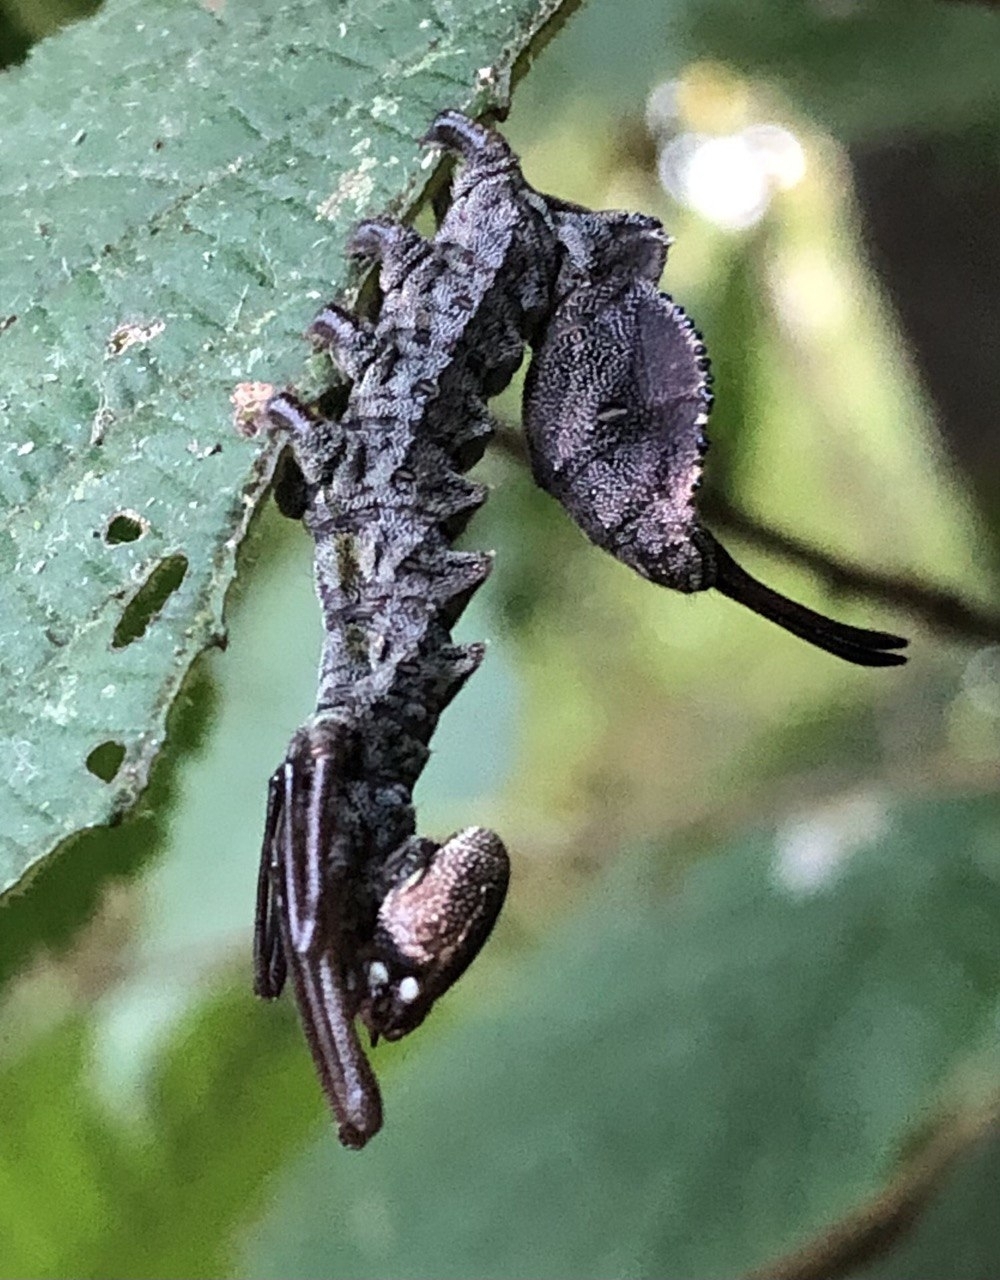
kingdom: Animalia
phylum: Arthropoda
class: Insecta
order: Lepidoptera
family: Notodontidae
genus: Stauropus
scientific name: Stauropus fagi
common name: Lobster moth
